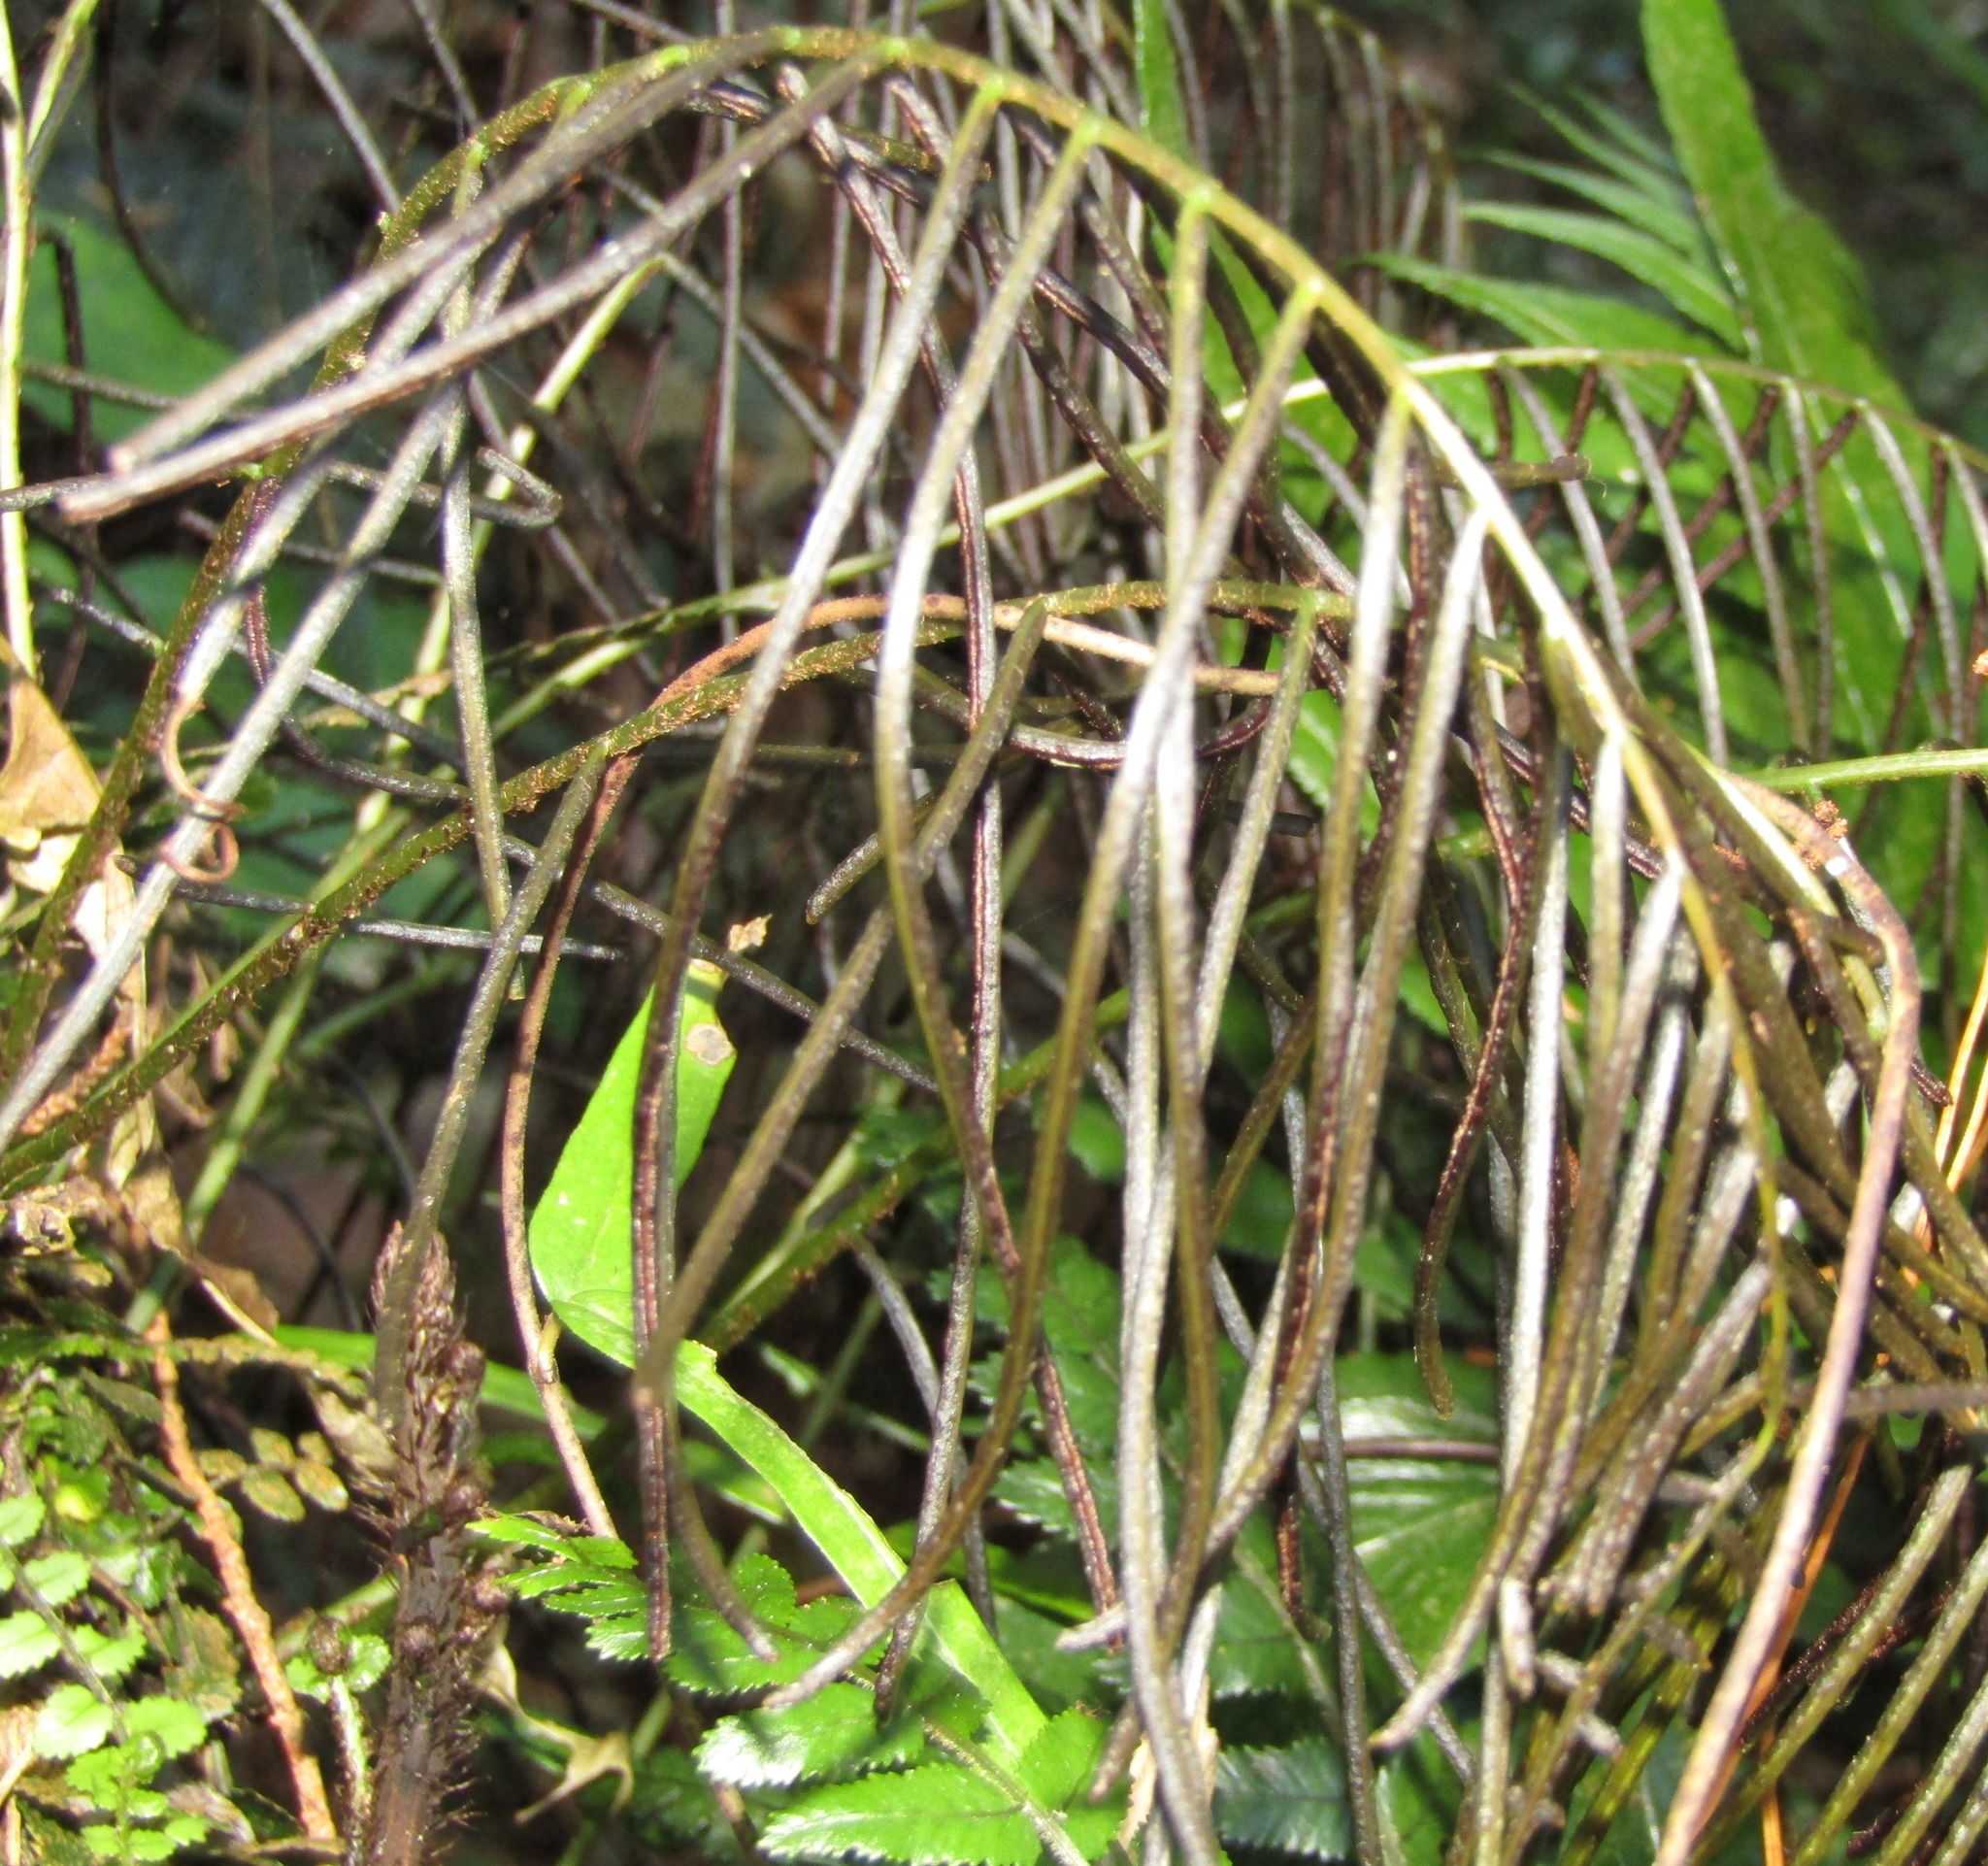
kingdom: Plantae
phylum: Tracheophyta
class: Polypodiopsida
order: Polypodiales
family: Blechnaceae
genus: Icarus
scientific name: Icarus filiformis
